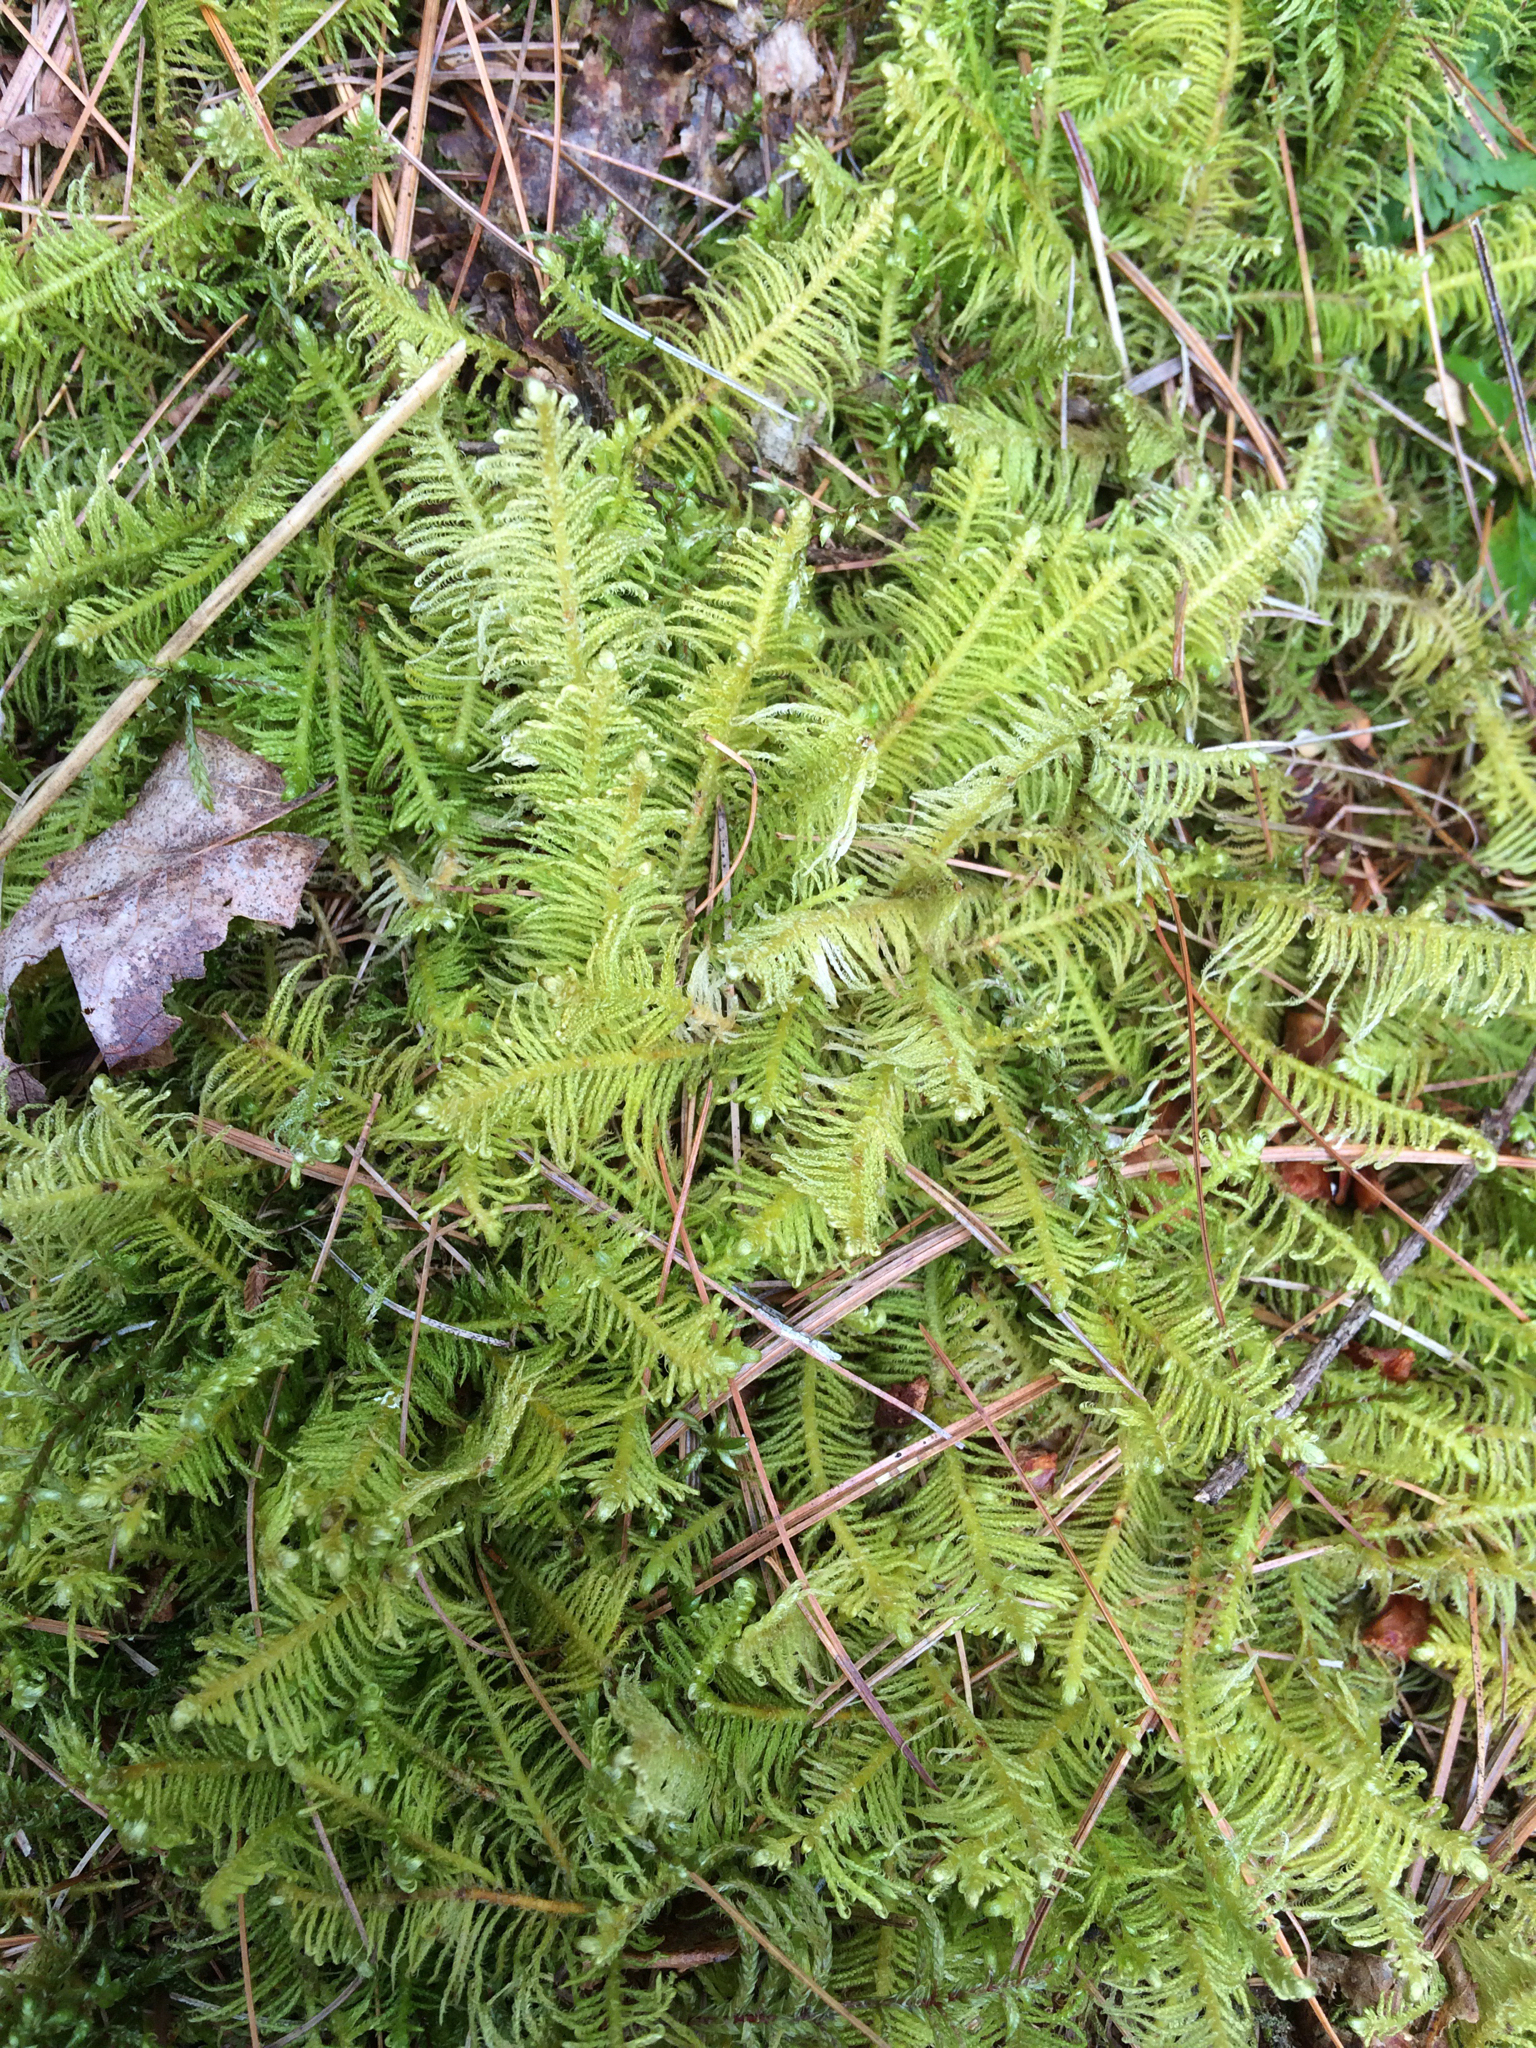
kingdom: Plantae
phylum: Bryophyta
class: Bryopsida
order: Hypnales
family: Pylaisiaceae
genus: Ptilium
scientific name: Ptilium crista-castrensis
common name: Knight's plume moss
